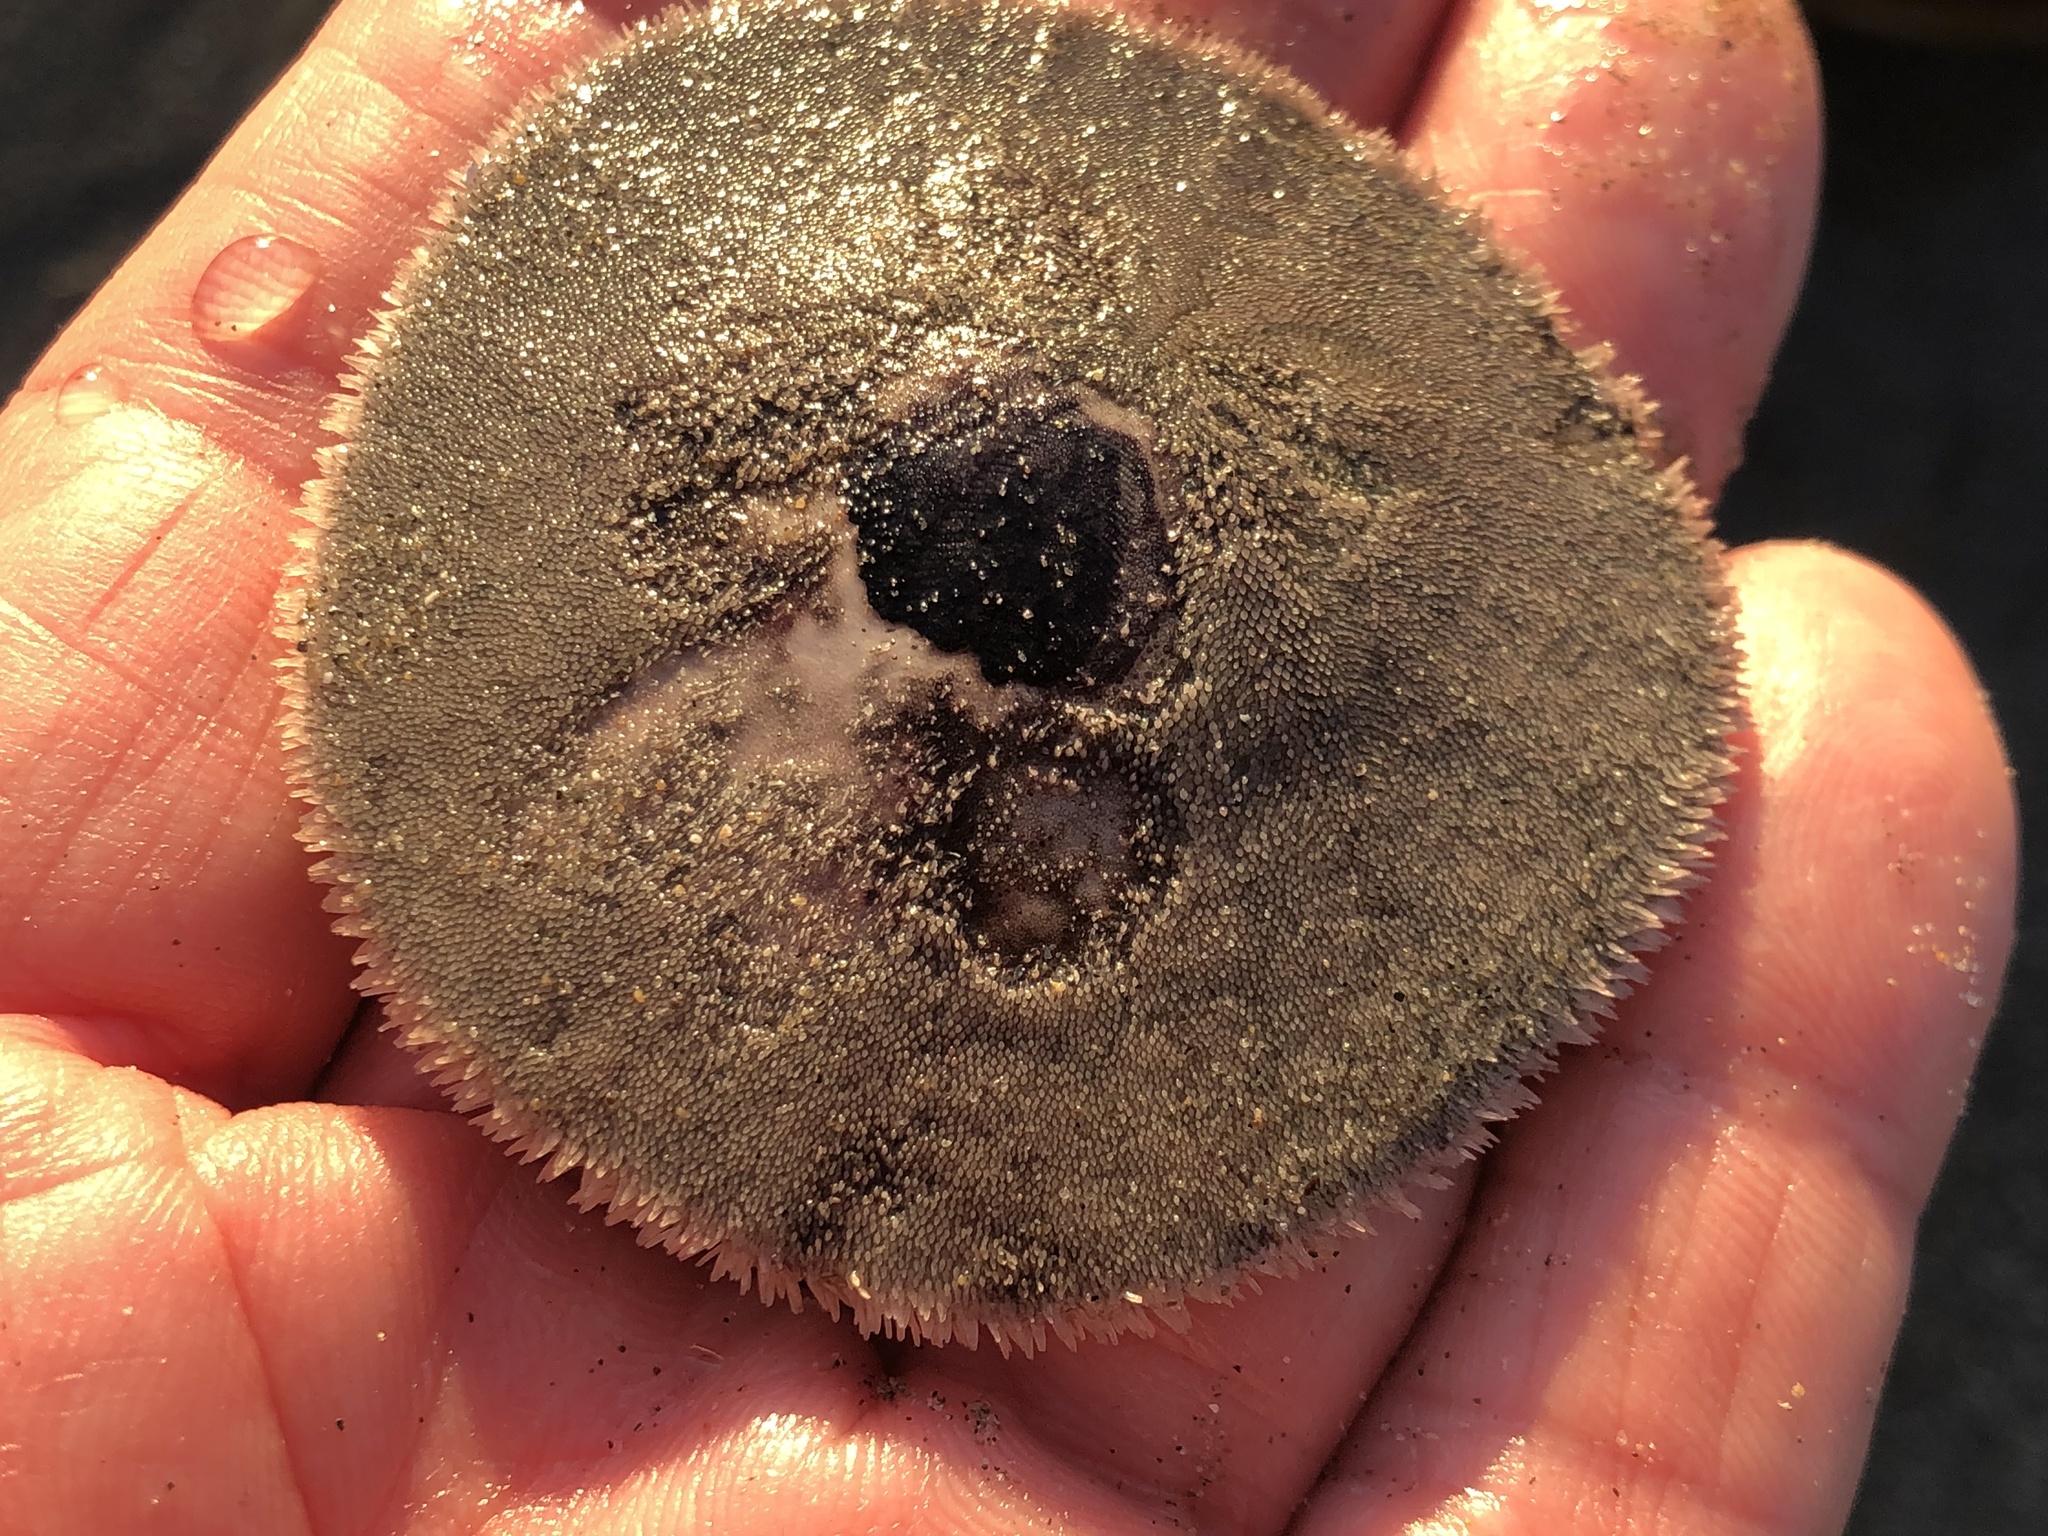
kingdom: Animalia
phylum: Echinodermata
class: Echinoidea
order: Echinolampadacea
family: Dendrasteridae
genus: Dendraster
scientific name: Dendraster excentricus
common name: Eccentric sand dollar sea urchin
